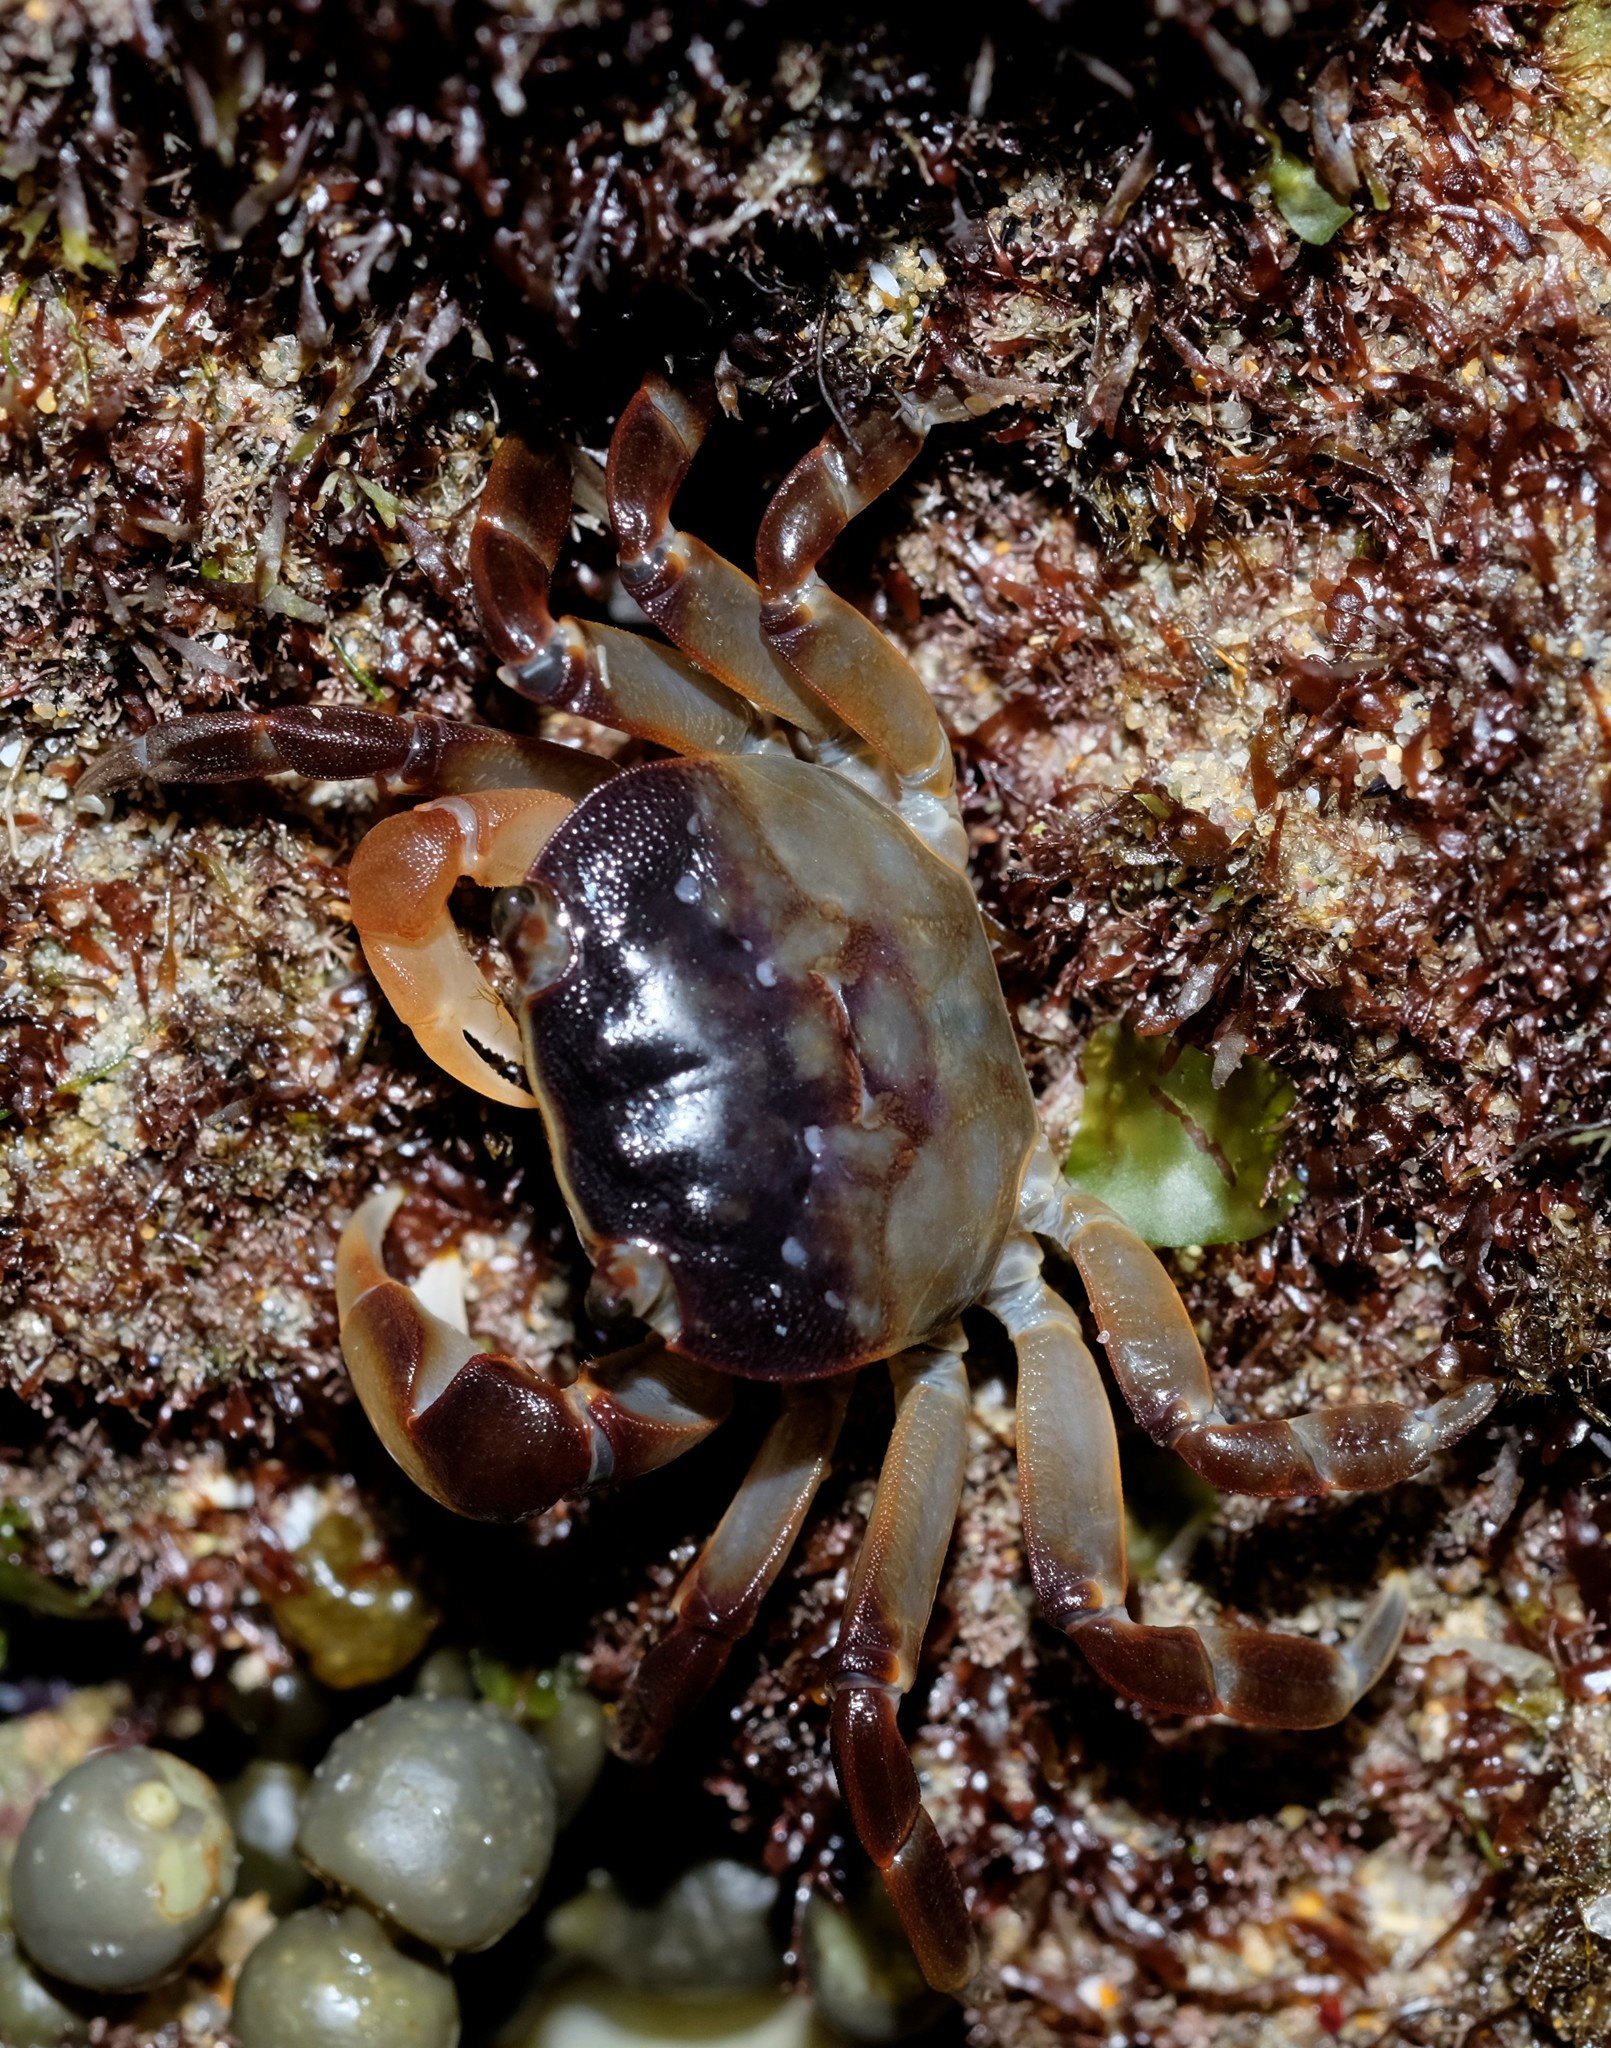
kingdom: Animalia
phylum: Arthropoda
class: Malacostraca
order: Decapoda
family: Varunidae
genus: Cyclograpsus
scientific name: Cyclograpsus granulosus
